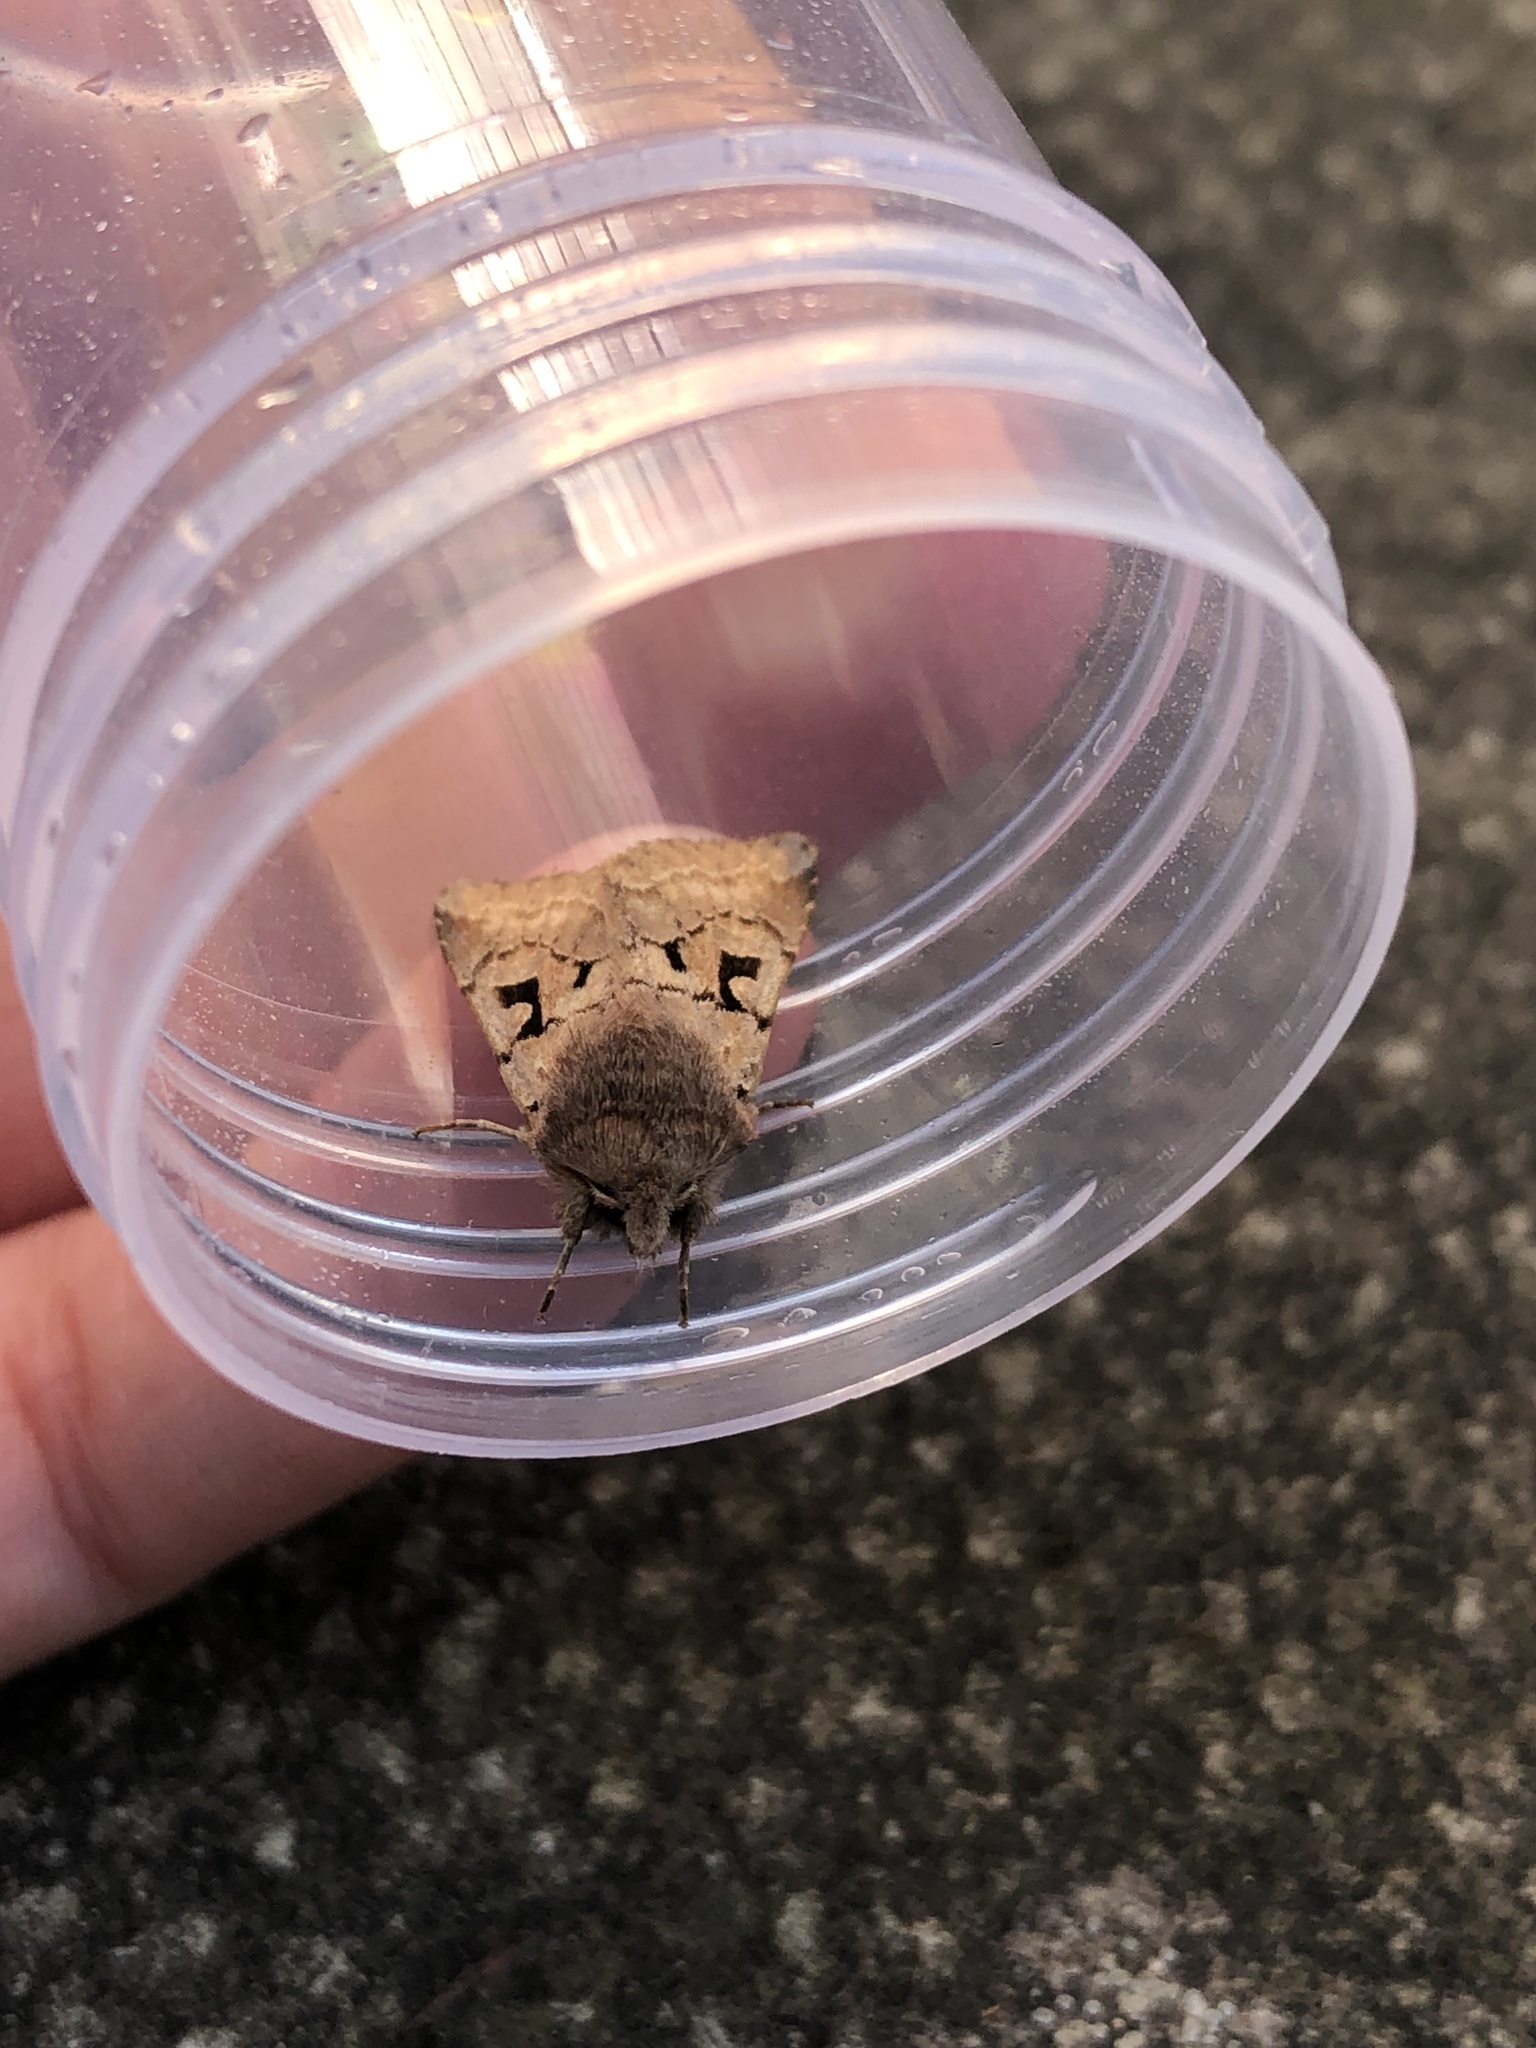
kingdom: Animalia
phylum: Arthropoda
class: Insecta
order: Lepidoptera
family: Noctuidae
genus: Orthosia
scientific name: Orthosia gothica
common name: Hebrew character
